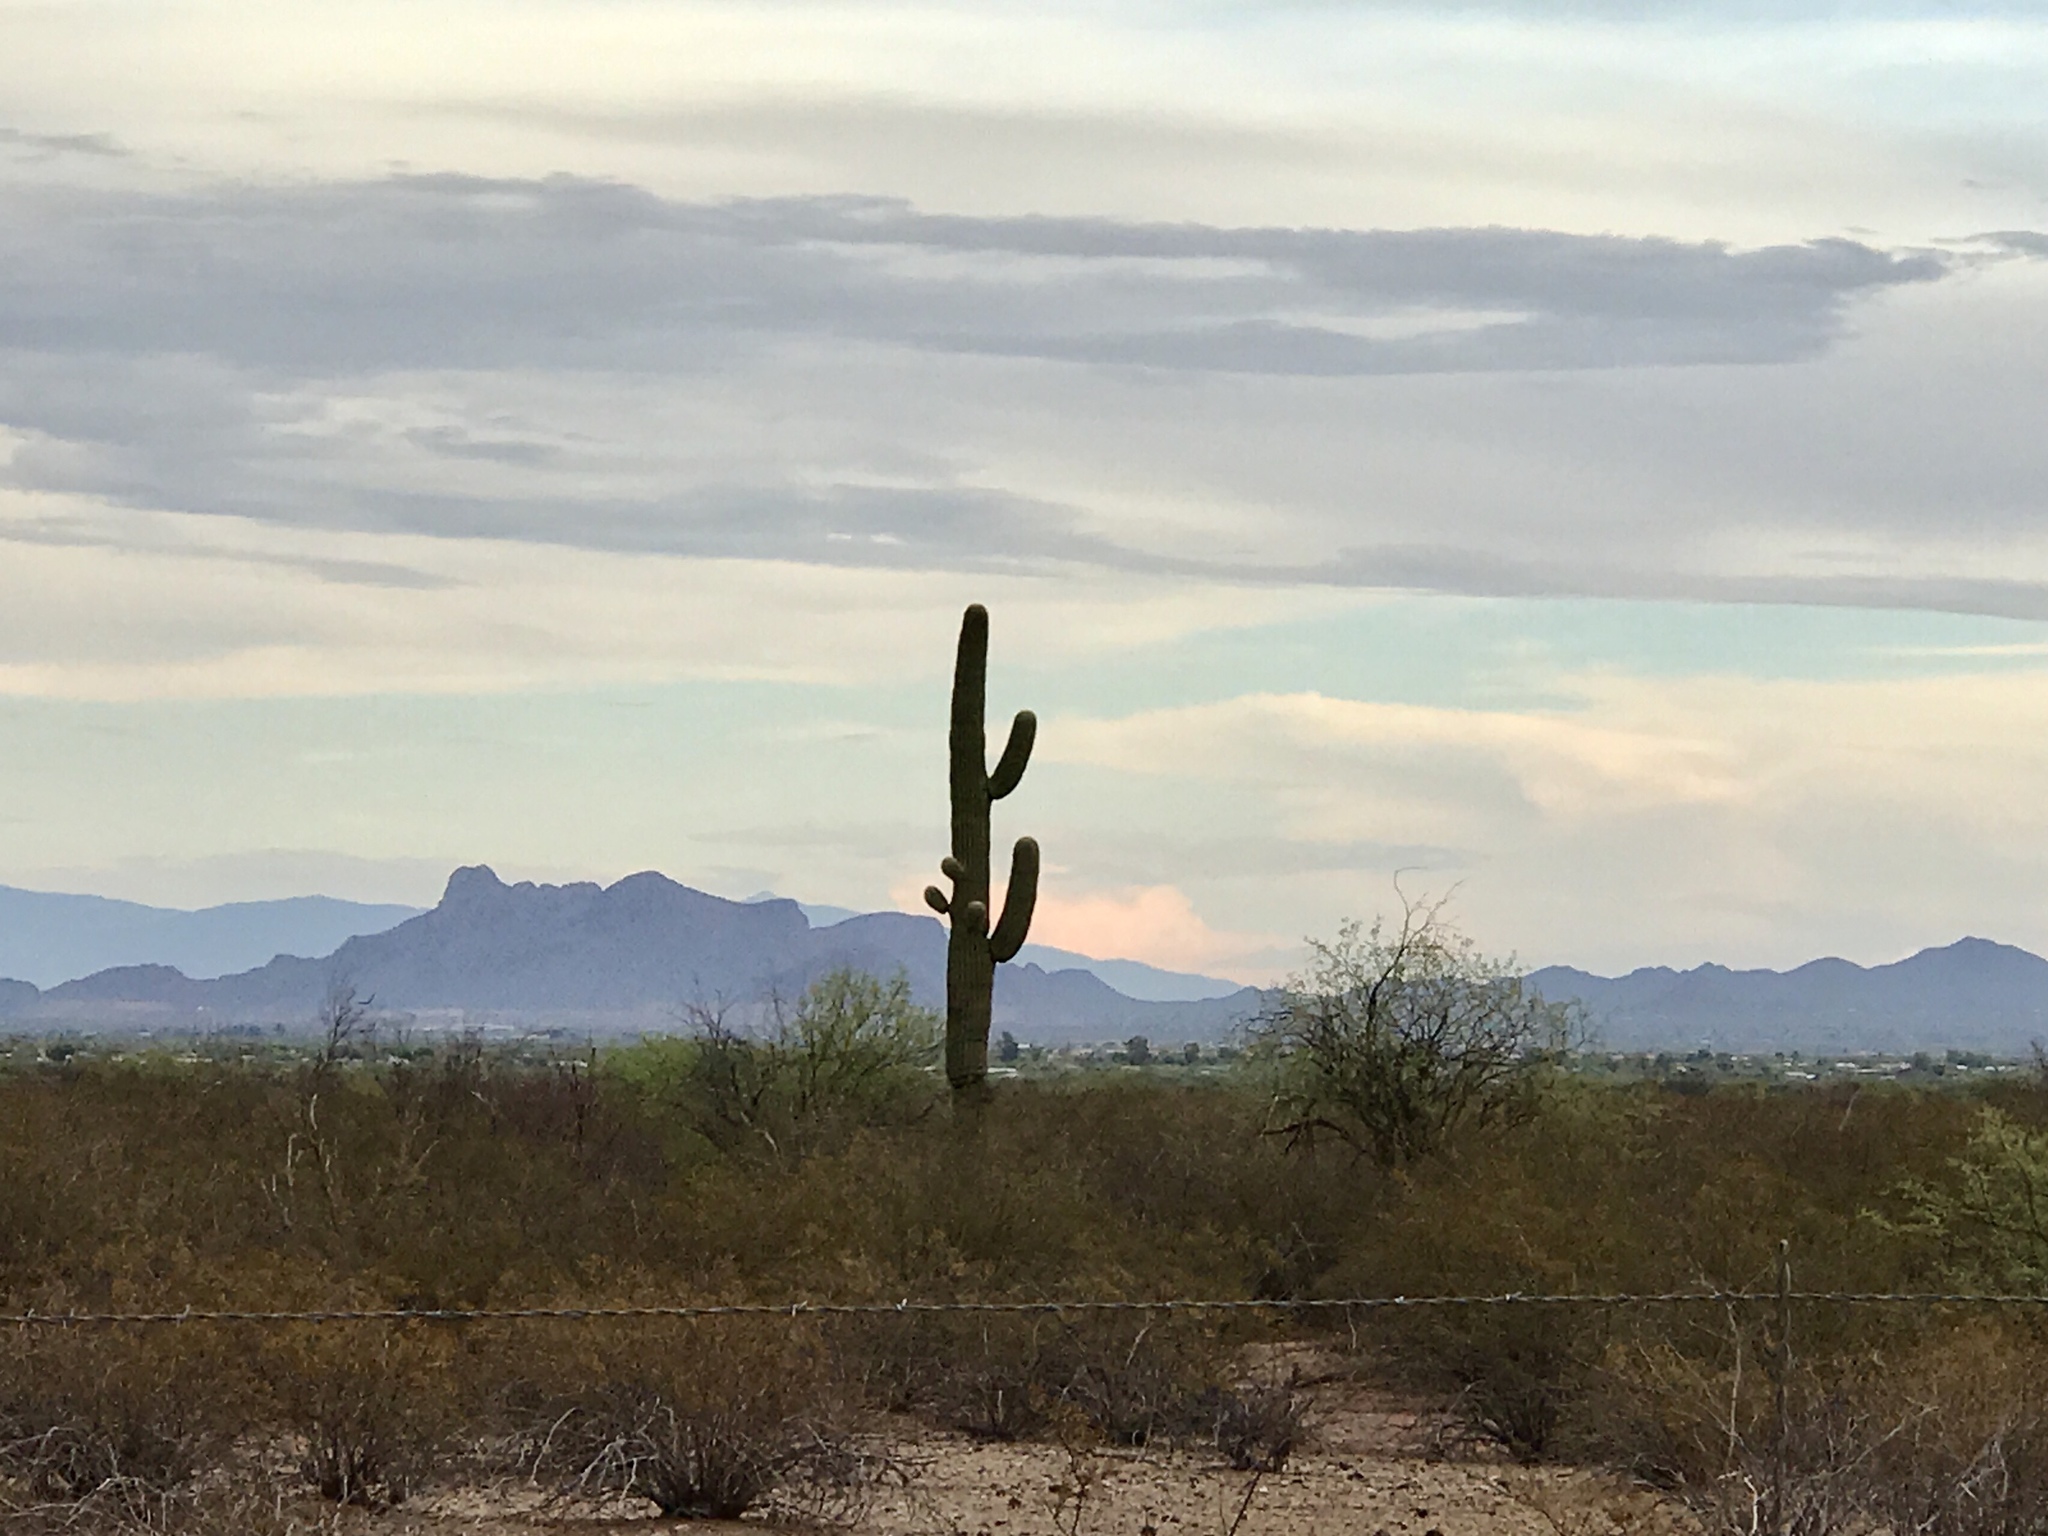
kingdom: Plantae
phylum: Tracheophyta
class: Magnoliopsida
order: Caryophyllales
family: Cactaceae
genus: Carnegiea
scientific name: Carnegiea gigantea
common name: Saguaro
